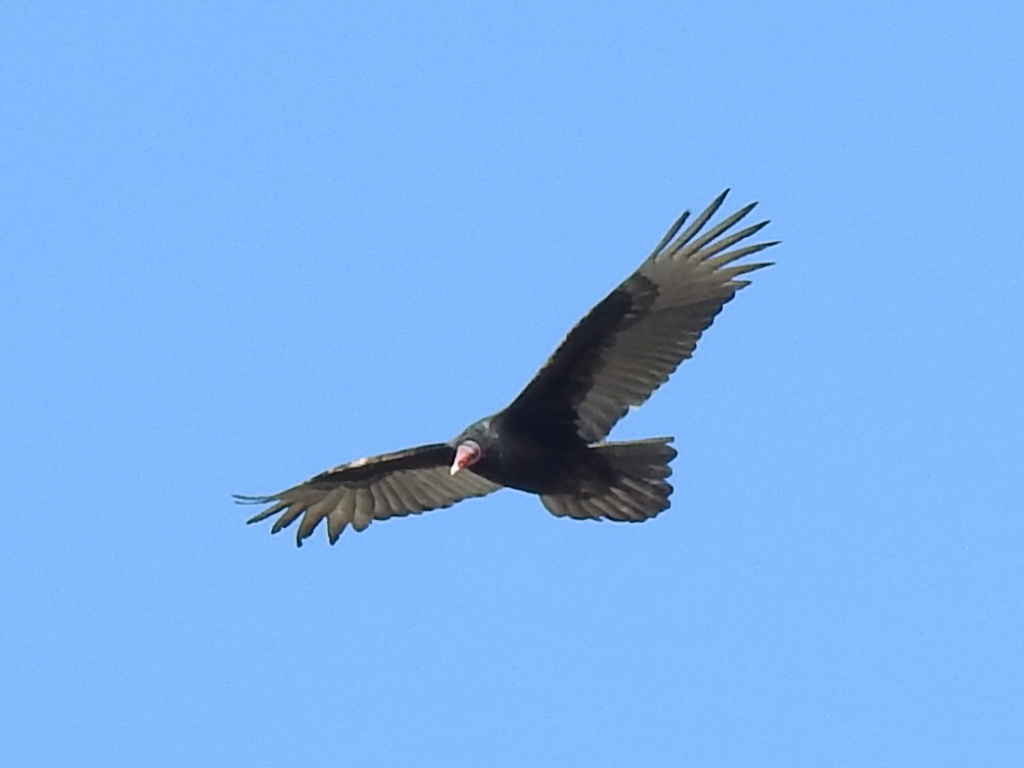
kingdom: Animalia
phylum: Chordata
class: Aves
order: Accipitriformes
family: Cathartidae
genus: Cathartes
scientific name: Cathartes aura
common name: Turkey vulture
